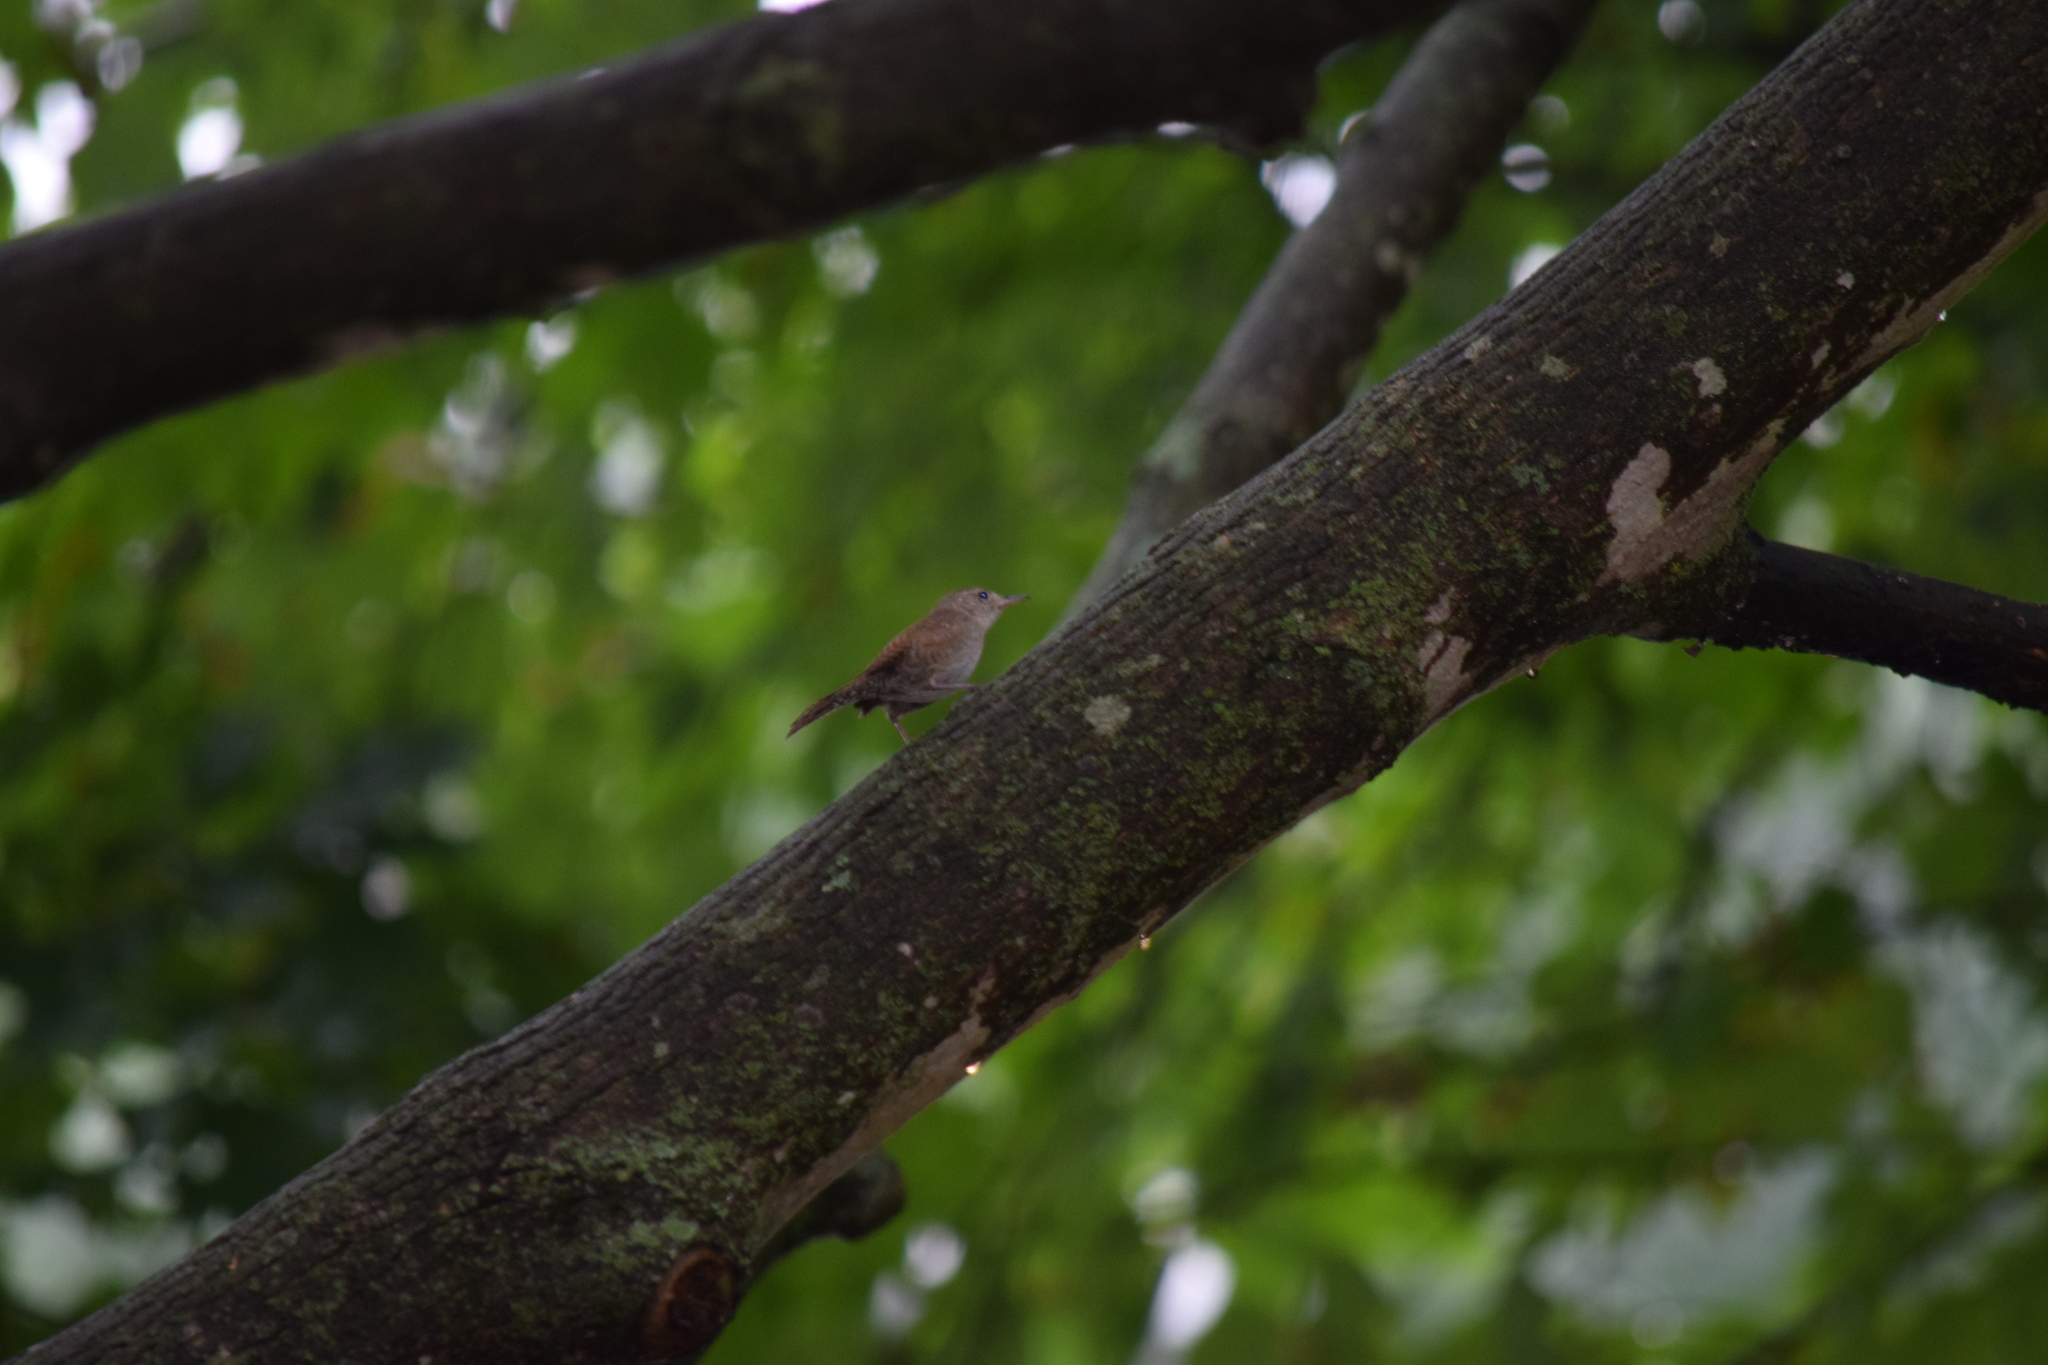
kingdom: Animalia
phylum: Chordata
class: Aves
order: Passeriformes
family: Troglodytidae
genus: Troglodytes
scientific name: Troglodytes aedon
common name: House wren
